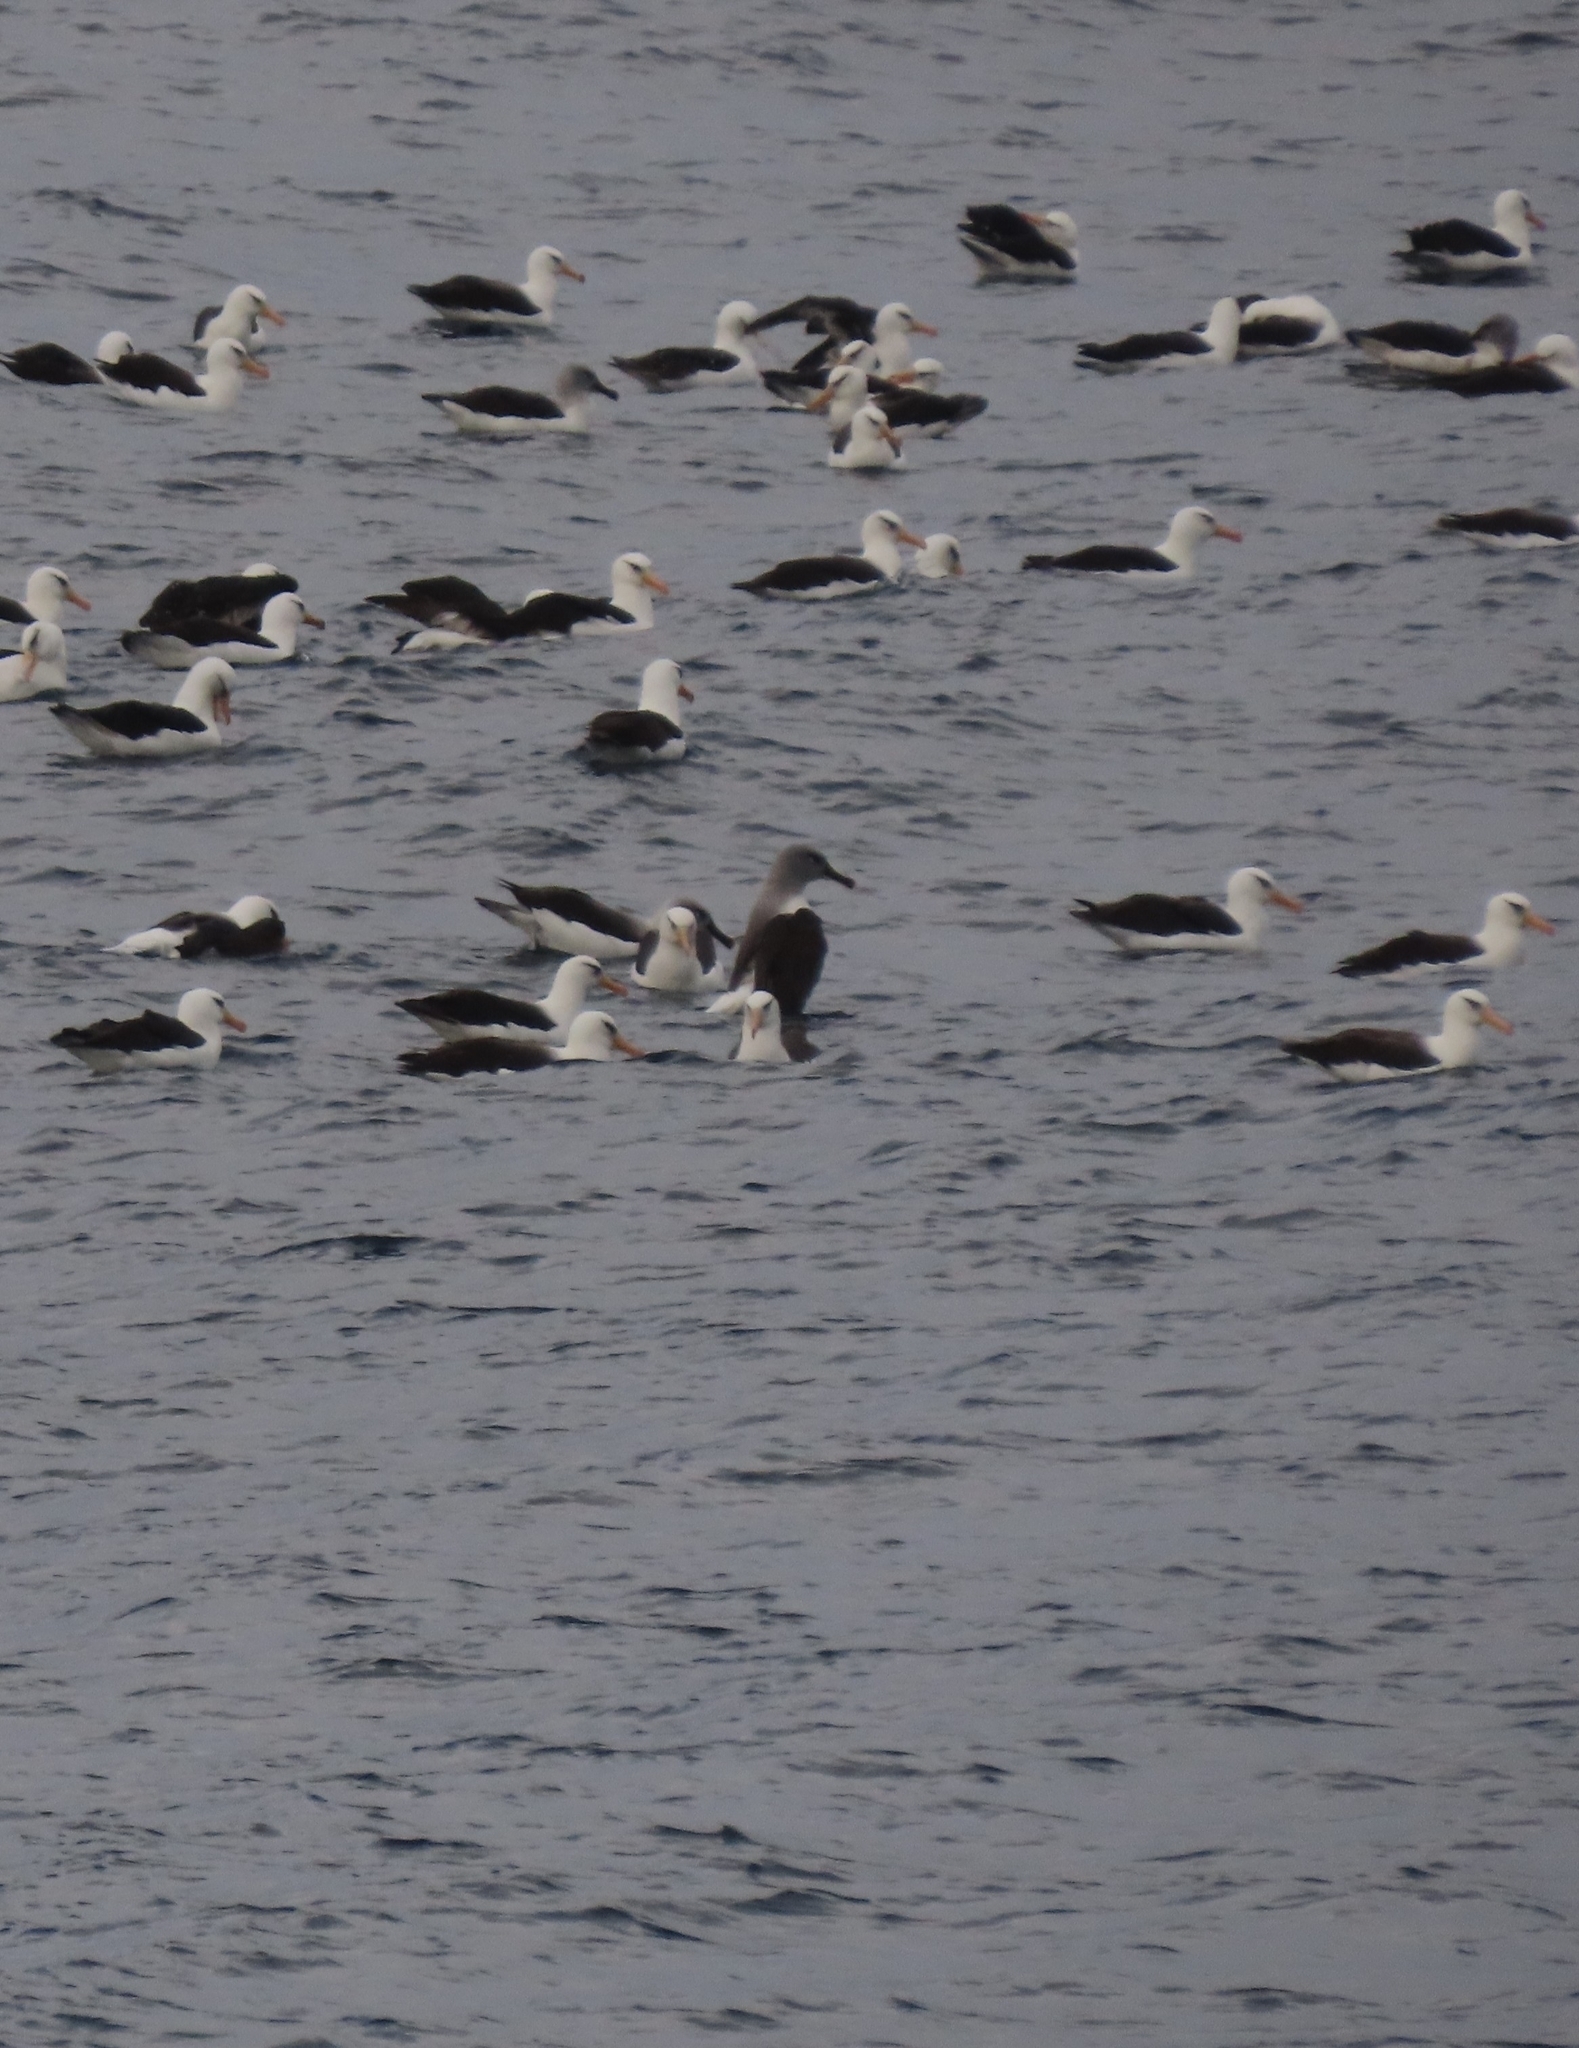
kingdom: Animalia
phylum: Chordata
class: Aves
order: Procellariiformes
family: Diomedeidae
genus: Thalassarche
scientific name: Thalassarche chrysostoma
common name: Grey-headed albatross
